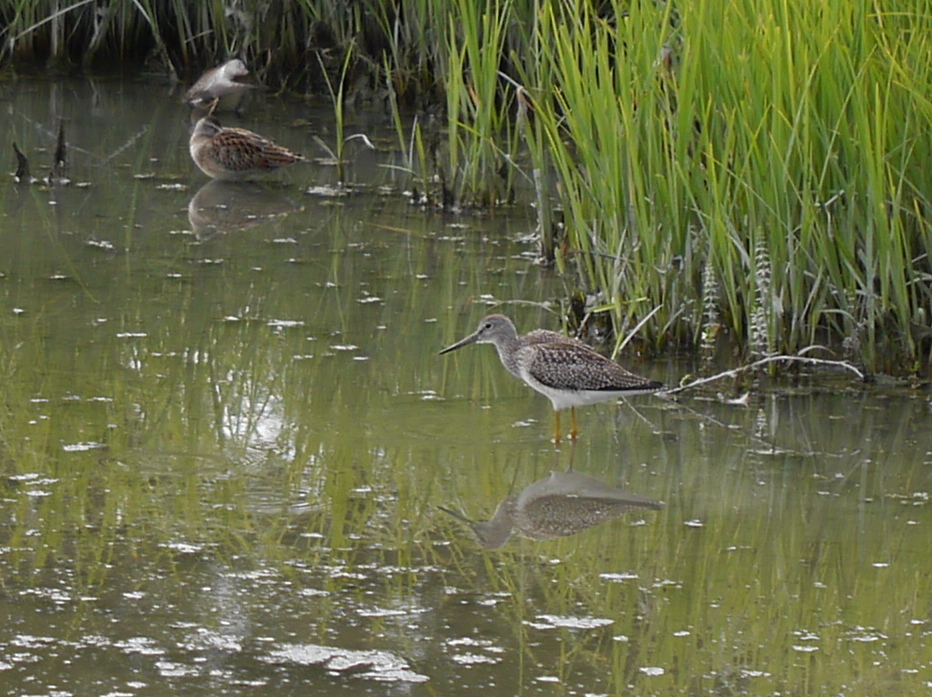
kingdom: Animalia
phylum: Chordata
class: Aves
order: Charadriiformes
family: Scolopacidae
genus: Tringa
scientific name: Tringa melanoleuca
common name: Greater yellowlegs
